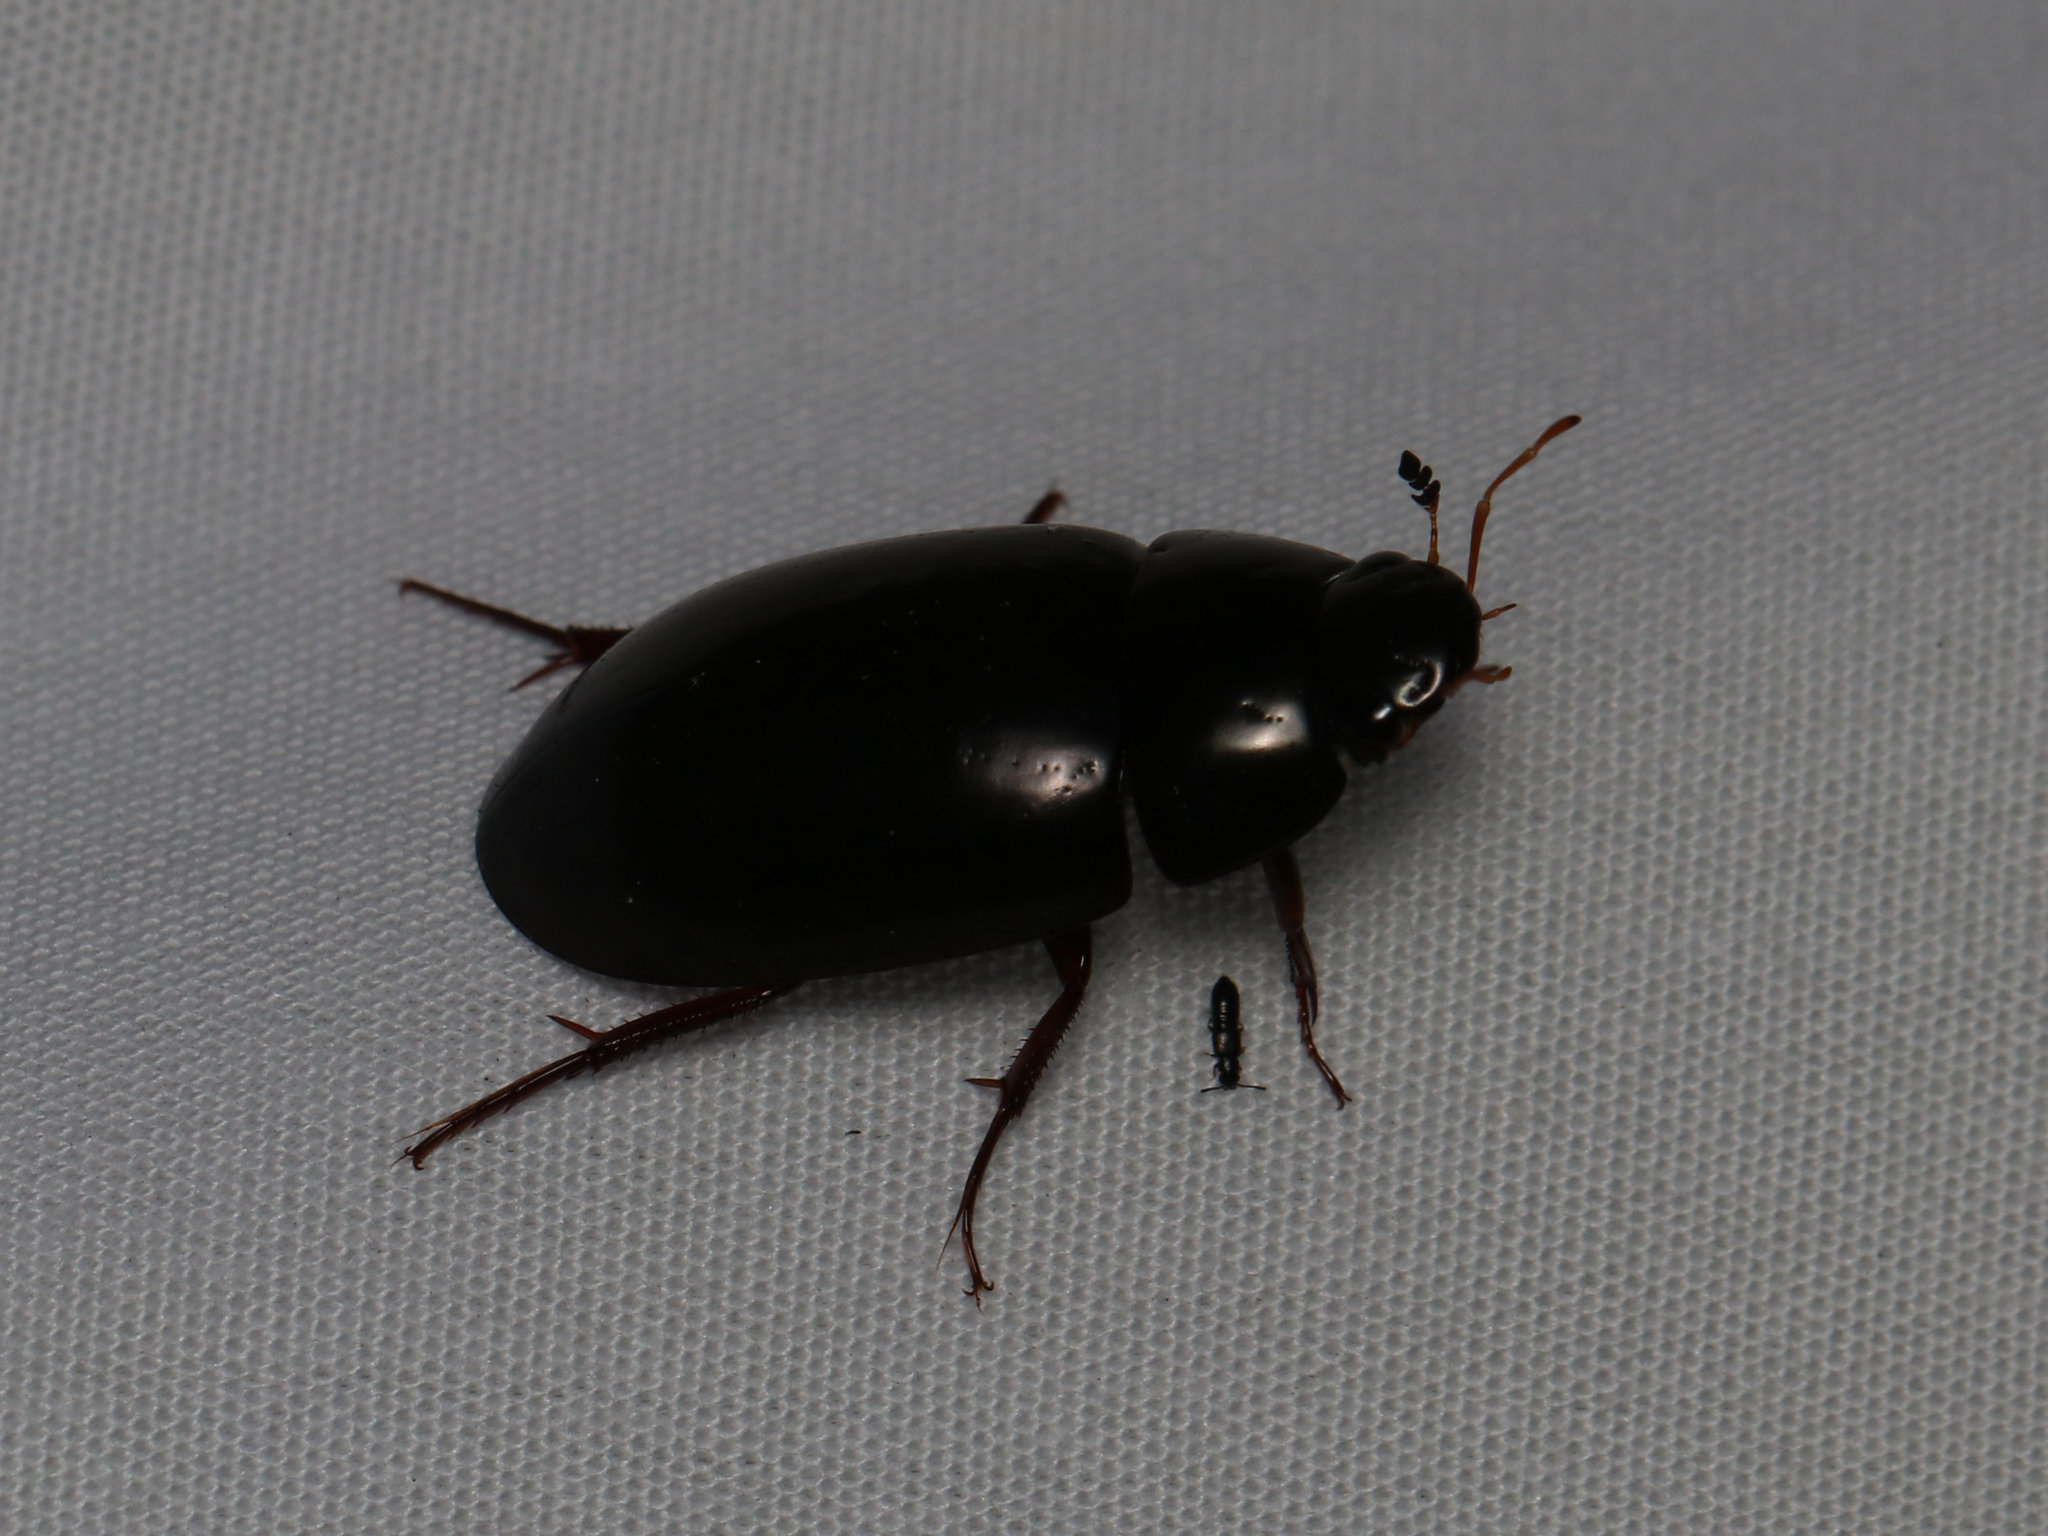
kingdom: Animalia
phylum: Arthropoda
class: Insecta
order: Coleoptera
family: Hydrophilidae
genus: Hydrochara
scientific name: Hydrochara
